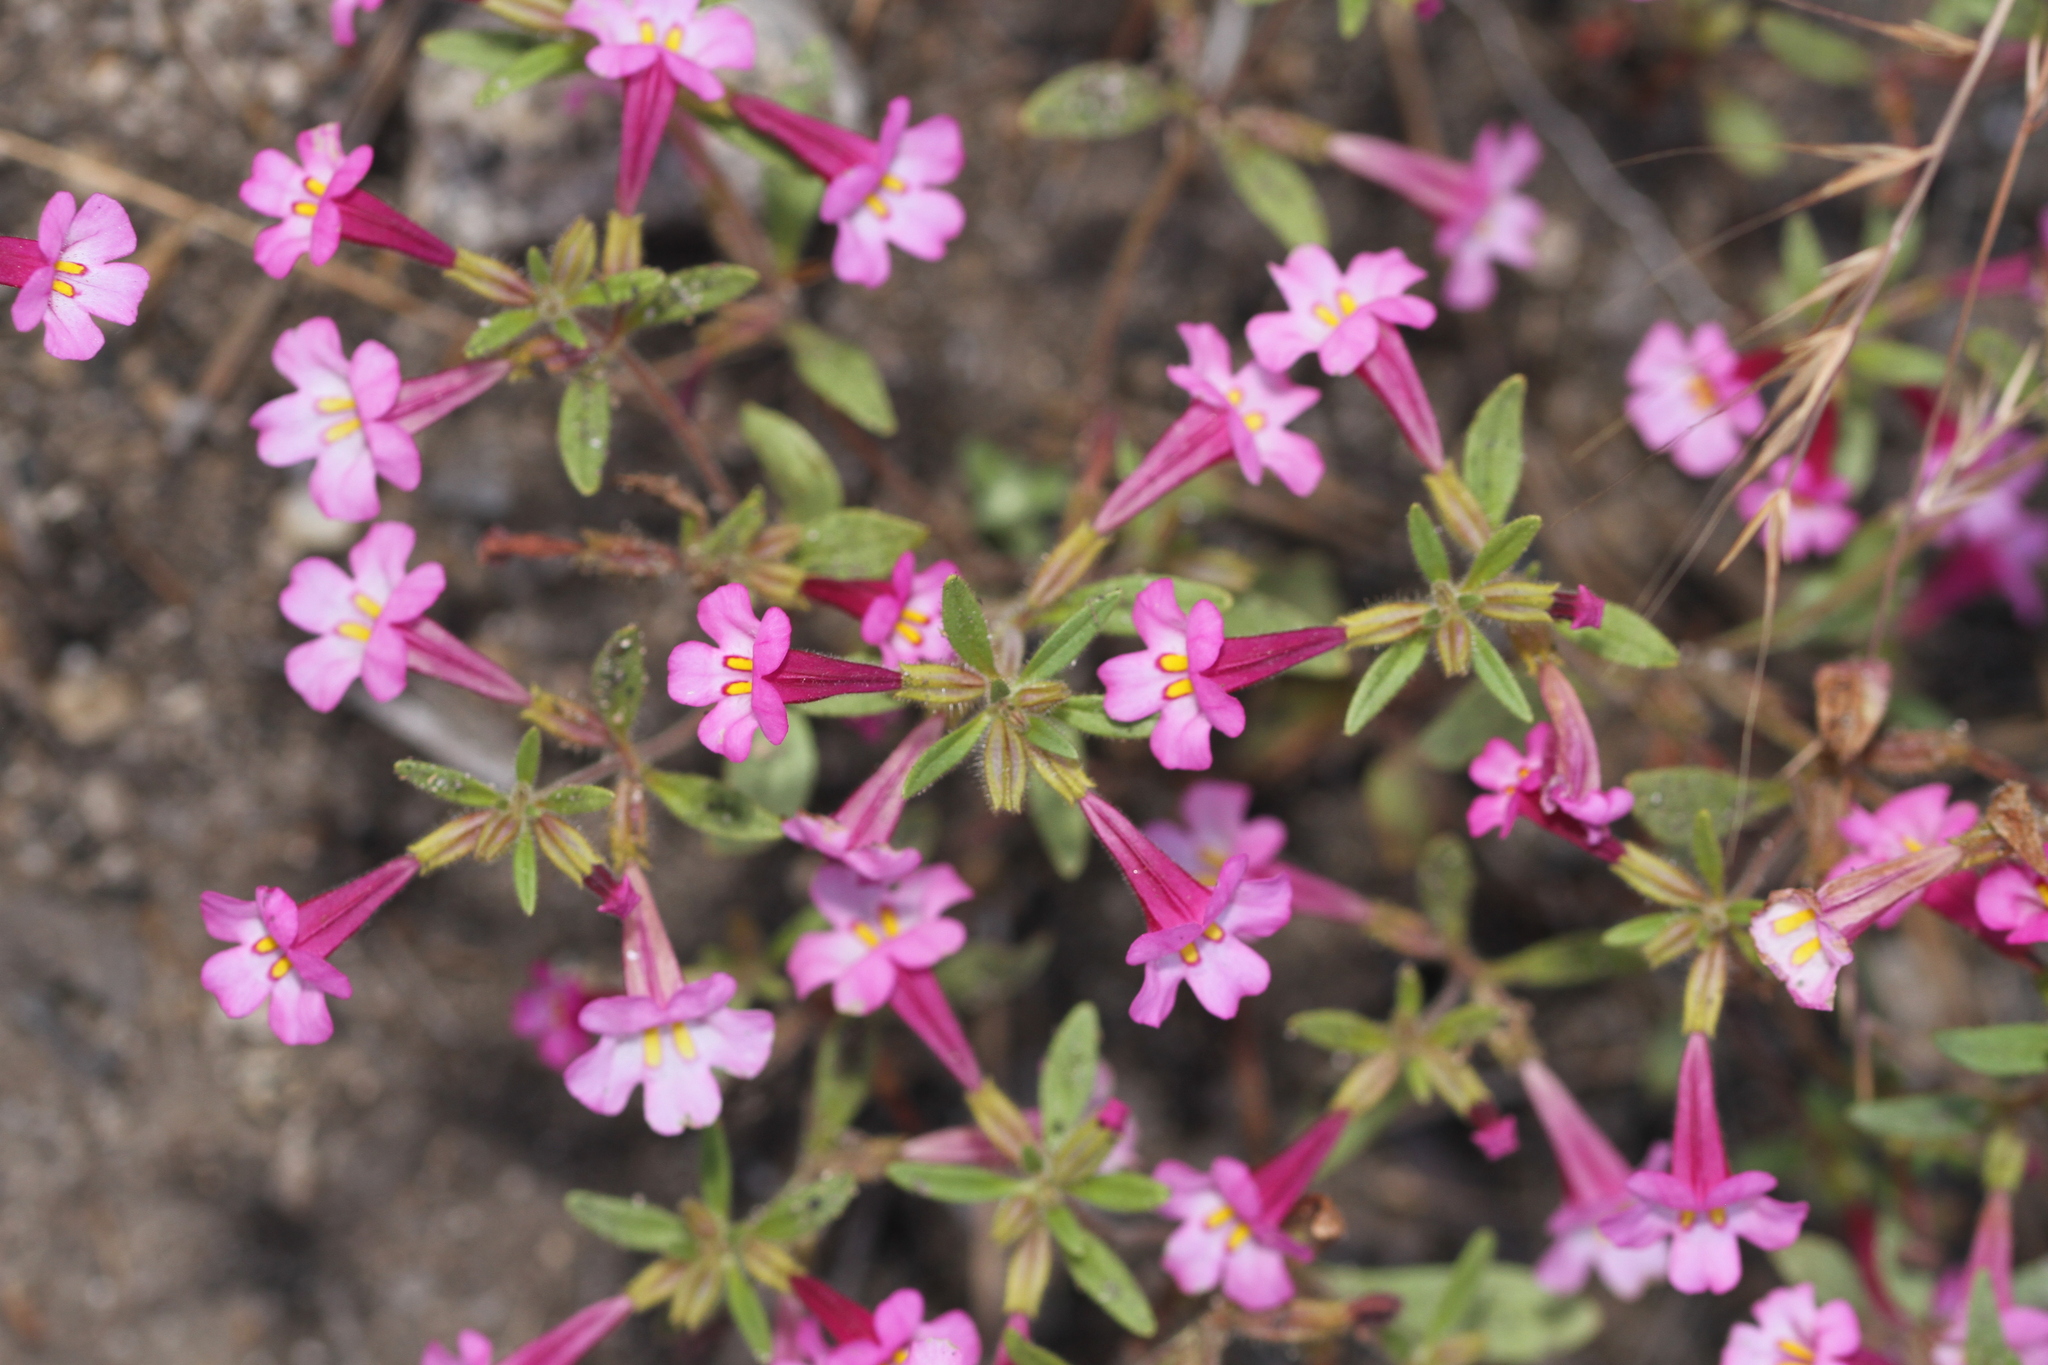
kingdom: Plantae
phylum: Tracheophyta
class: Magnoliopsida
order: Lamiales
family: Phrymaceae
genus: Diplacus
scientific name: Diplacus torreyi
